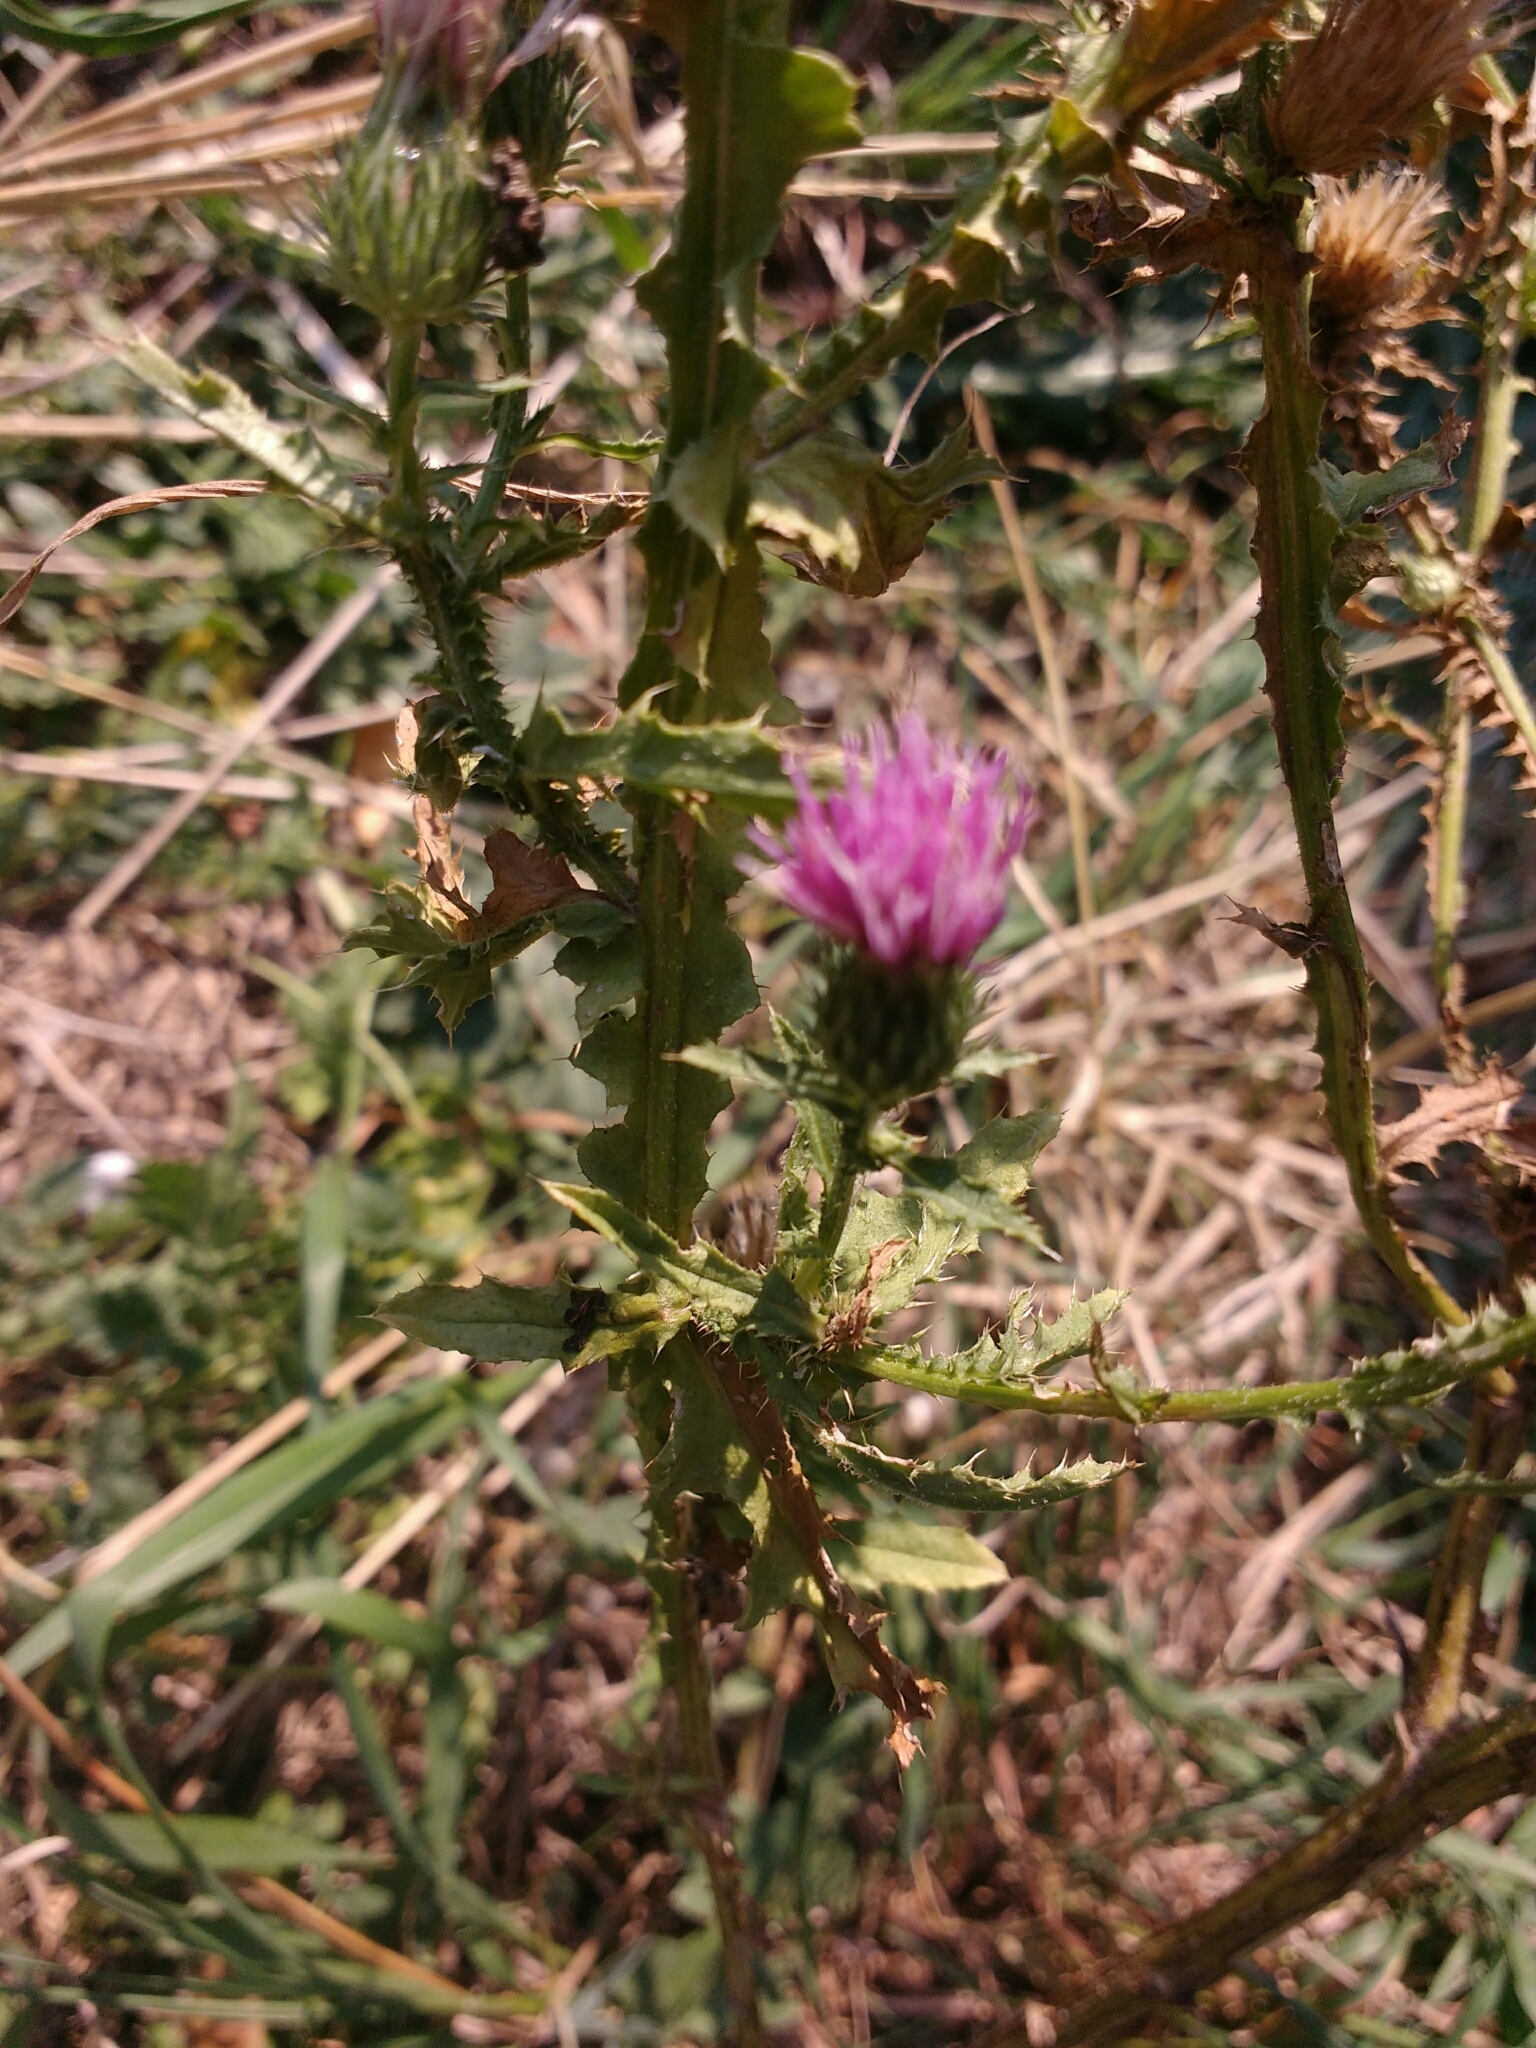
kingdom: Plantae
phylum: Tracheophyta
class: Magnoliopsida
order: Asterales
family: Asteraceae
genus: Carduus
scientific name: Carduus acanthoides
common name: Plumeless thistle
